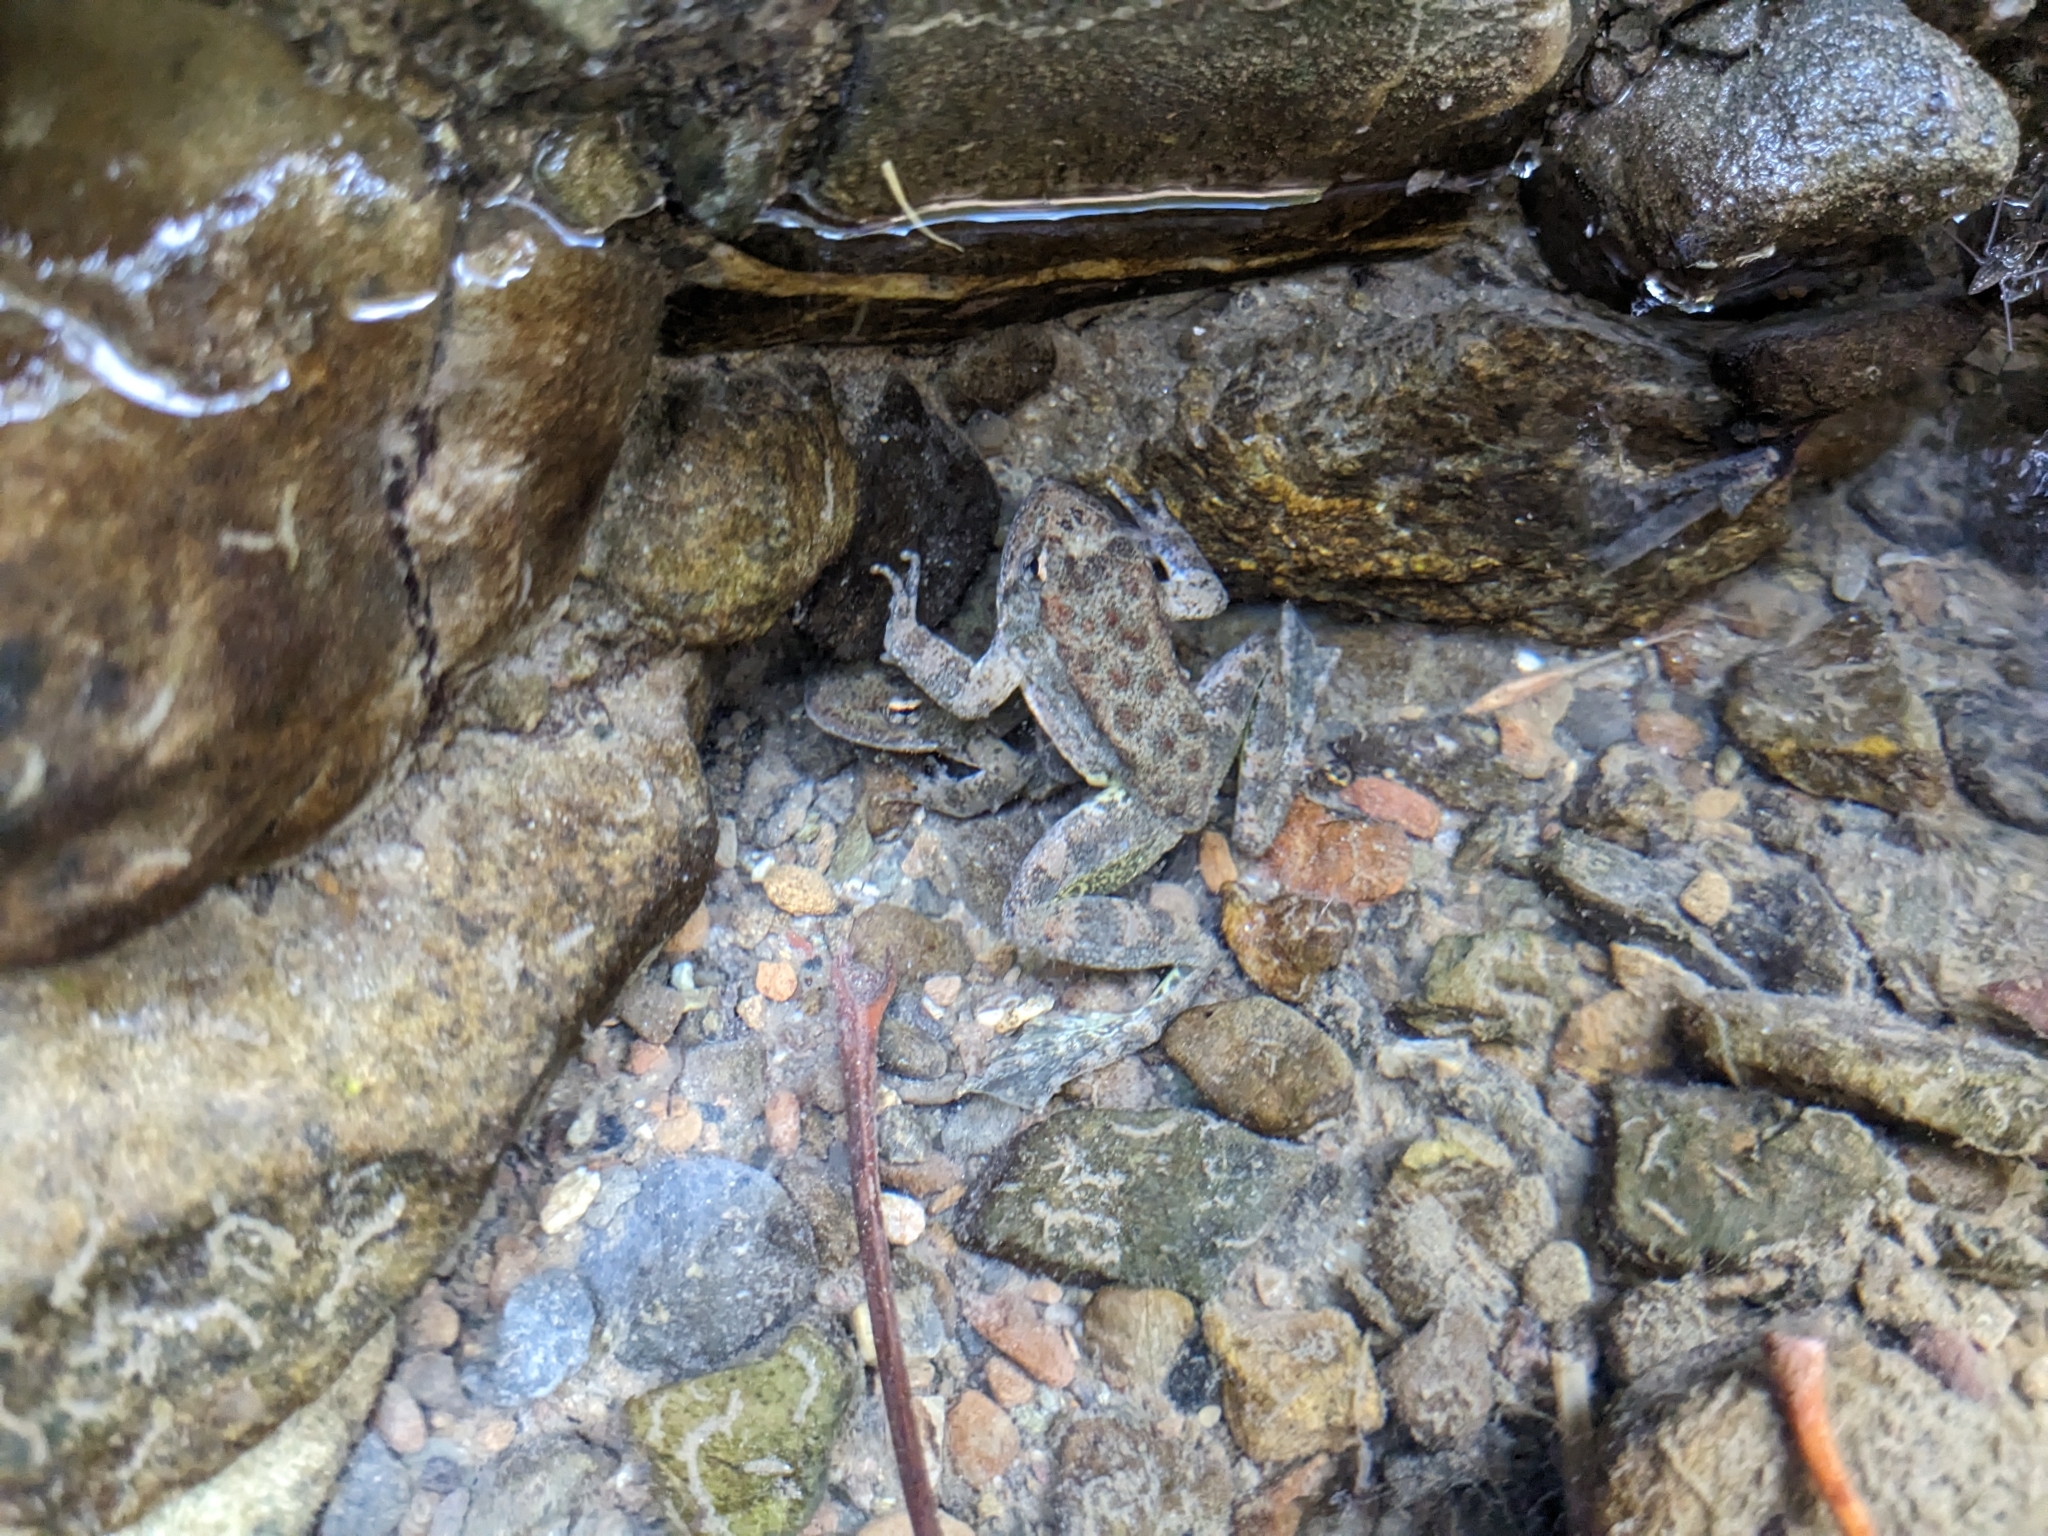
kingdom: Animalia
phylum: Chordata
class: Amphibia
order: Anura
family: Ranidae
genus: Rana
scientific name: Rana boylii
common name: Foothill yellow-legged frog
